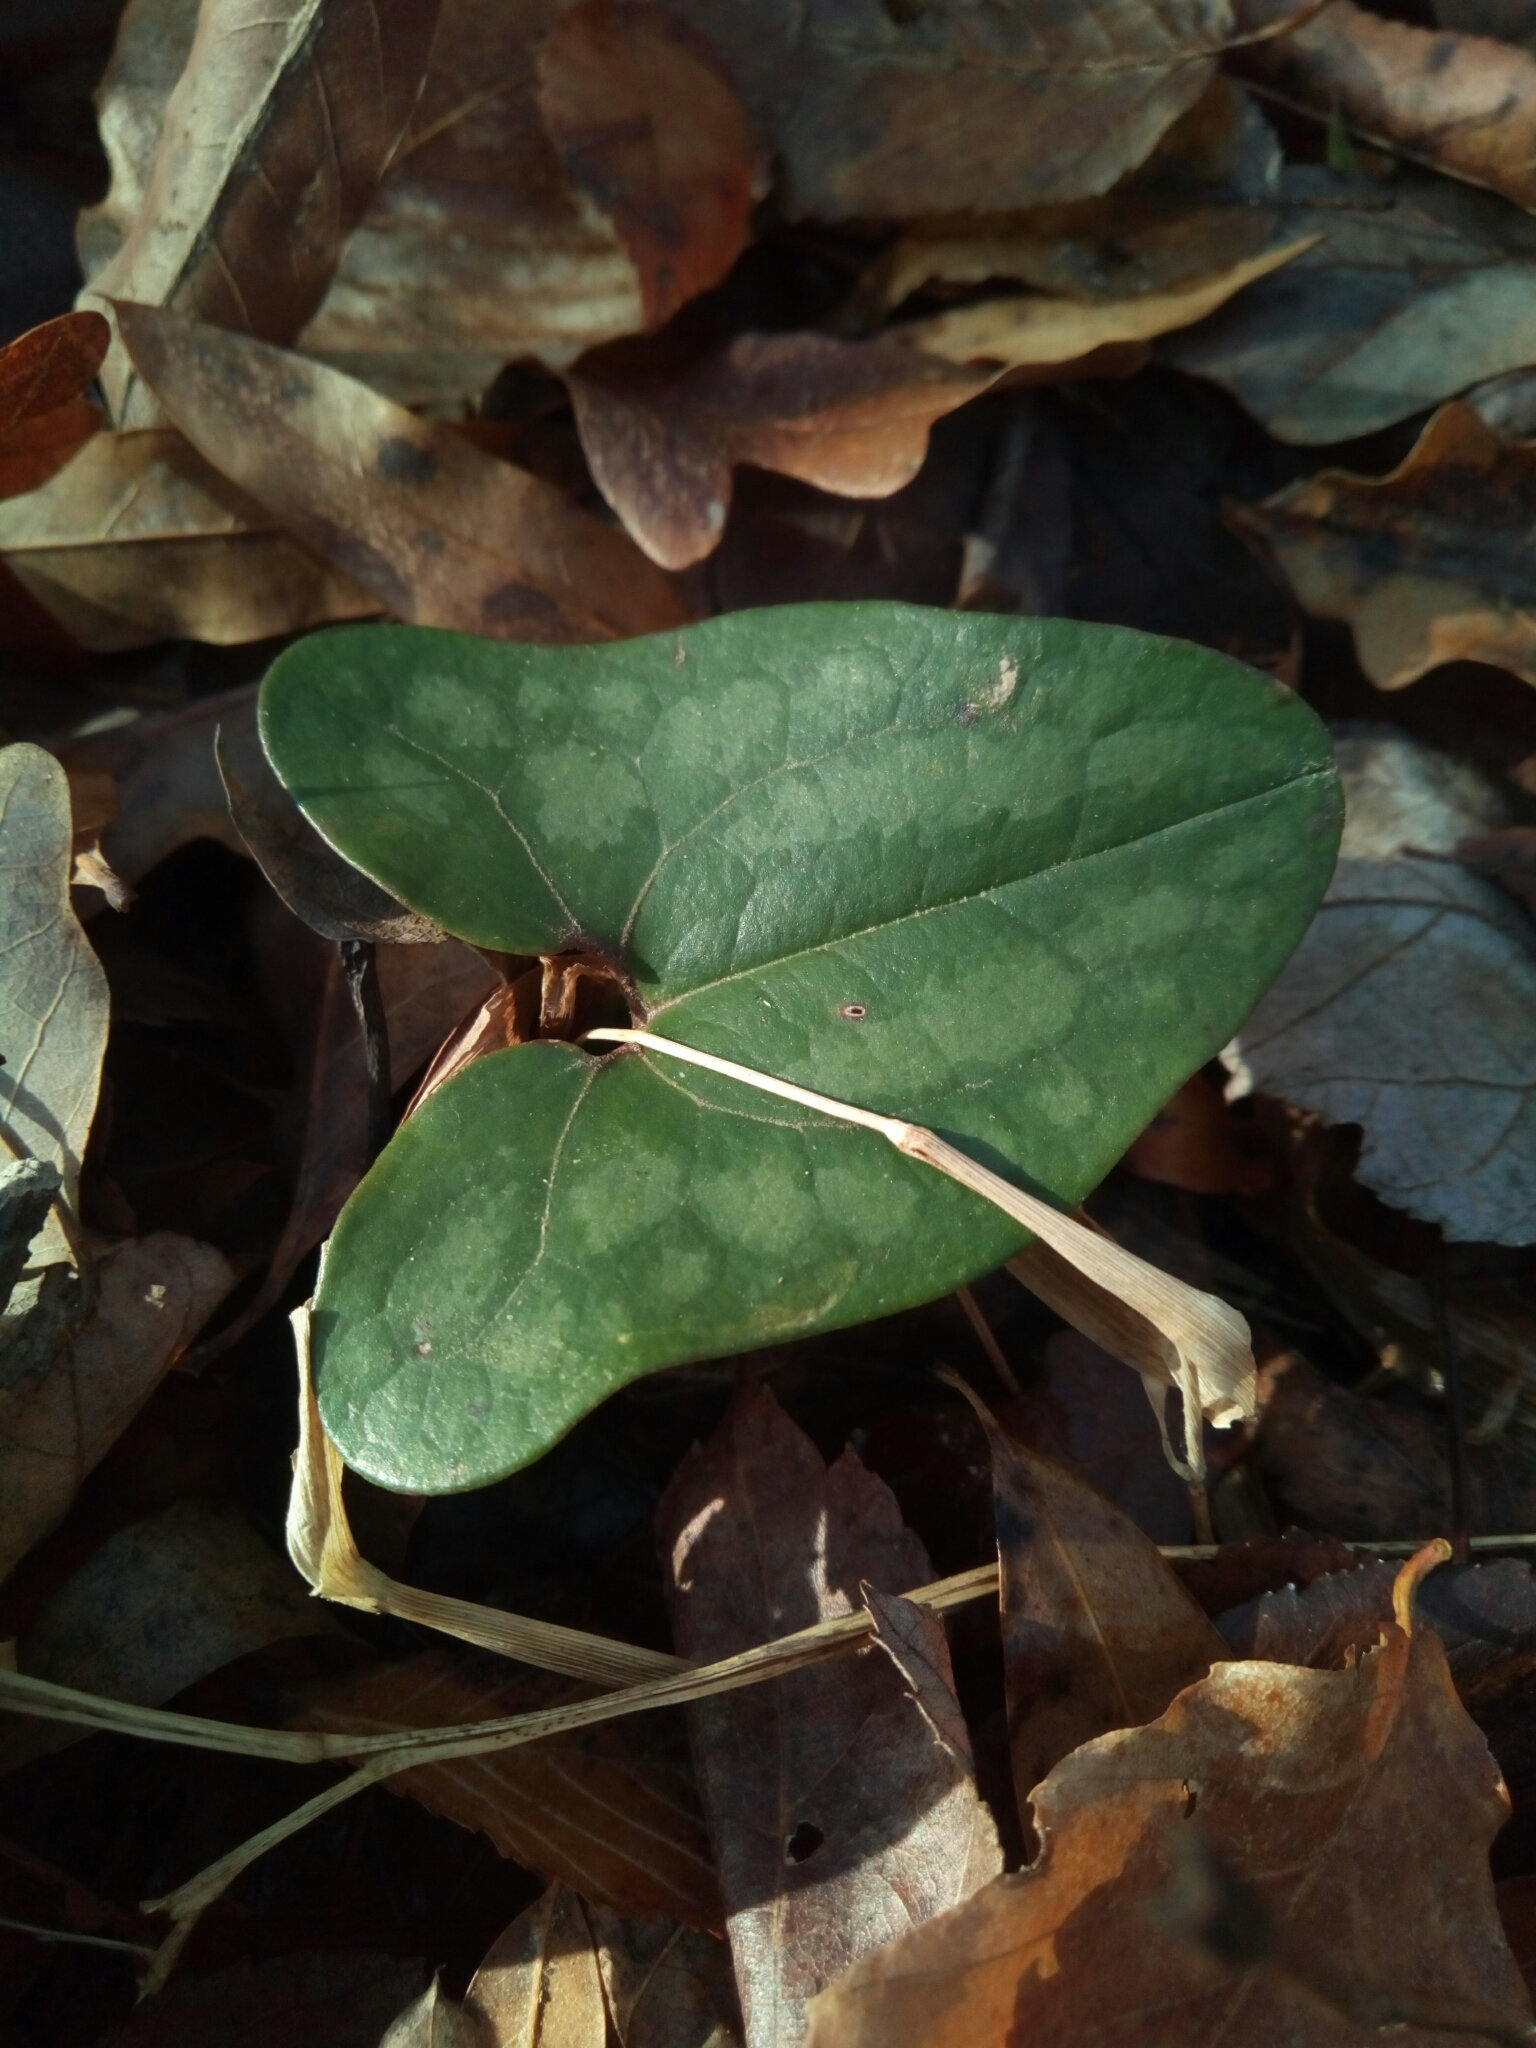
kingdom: Plantae
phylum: Tracheophyta
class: Magnoliopsida
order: Piperales
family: Aristolochiaceae
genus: Hexastylis
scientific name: Hexastylis arifolia
